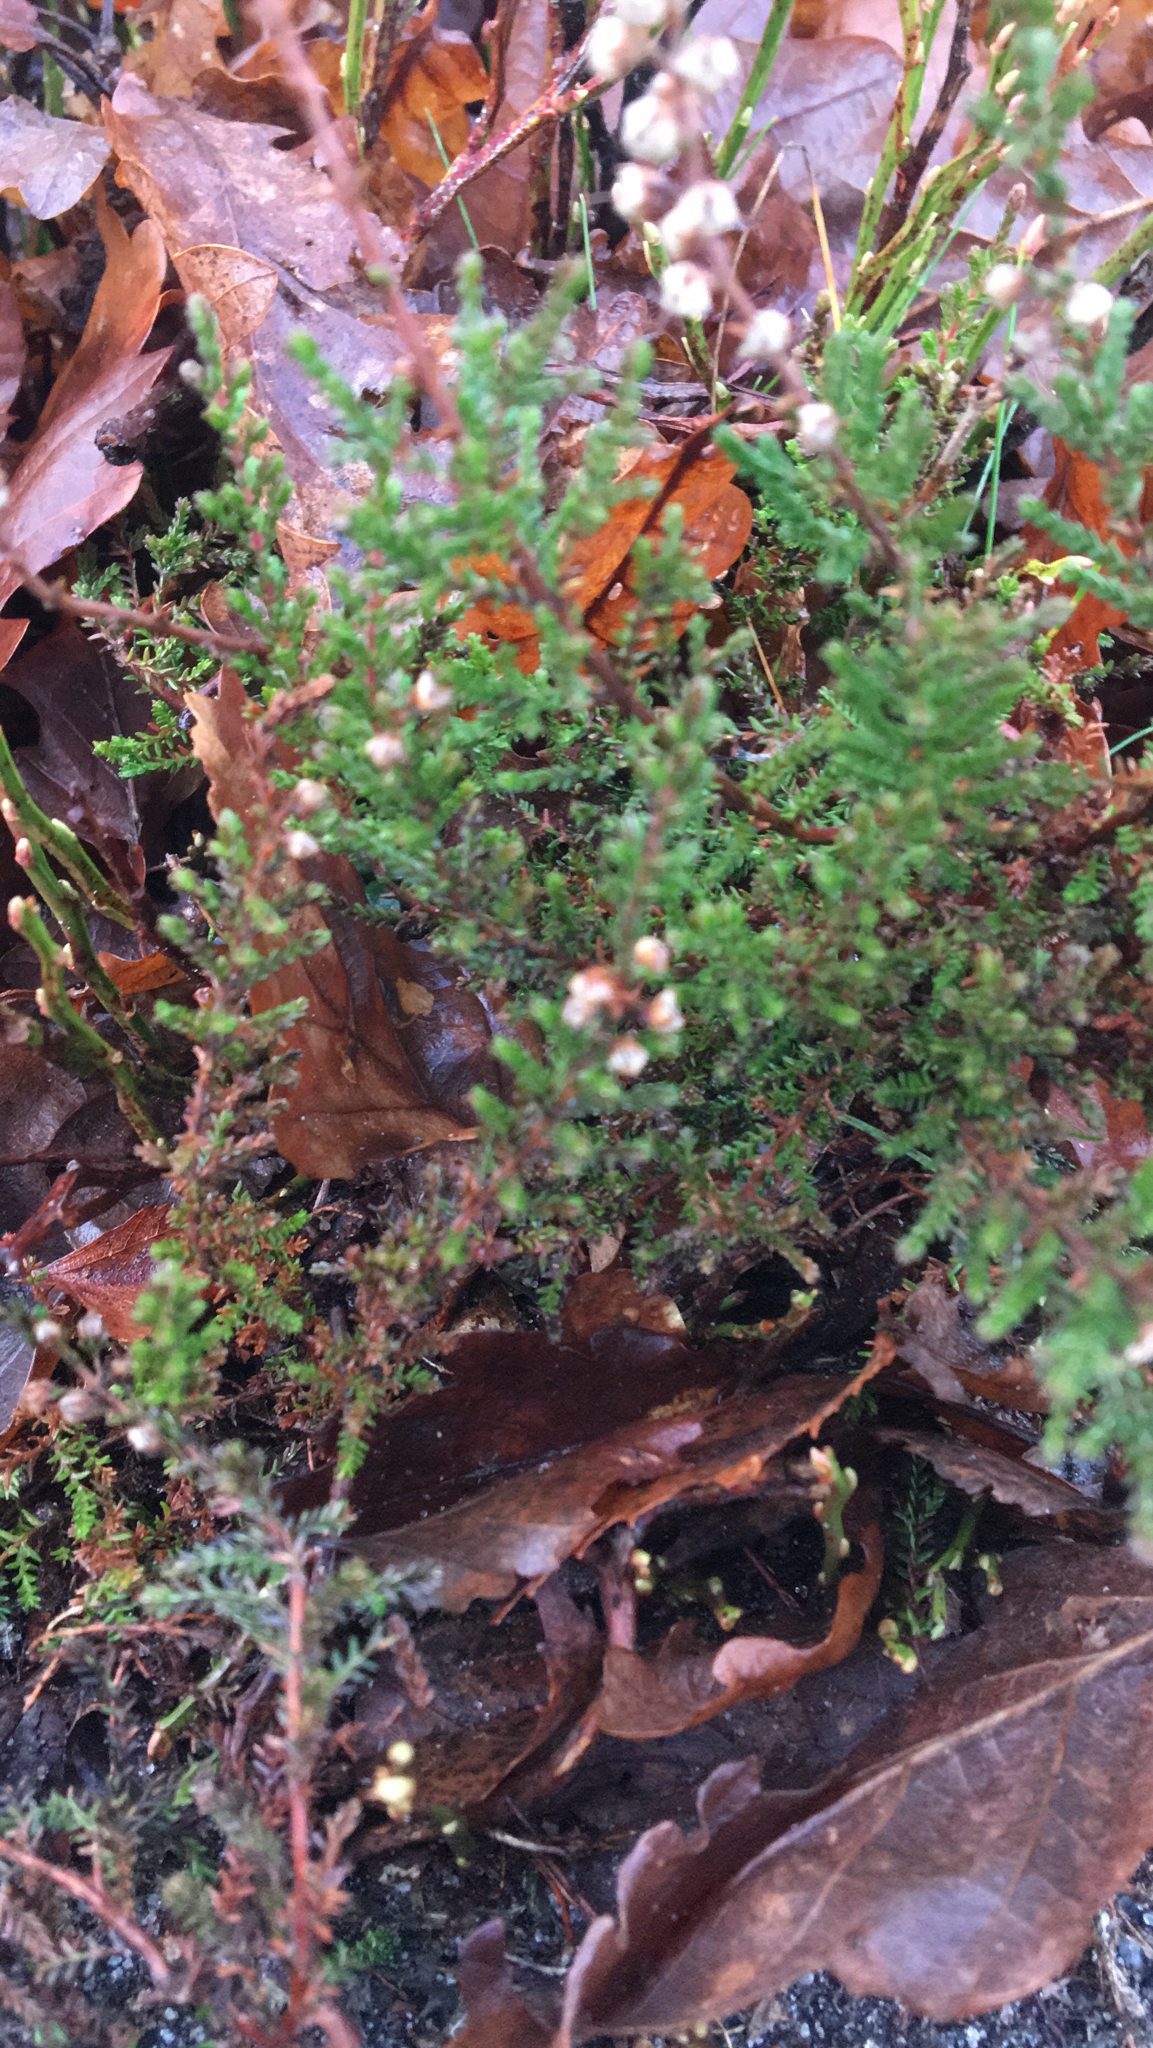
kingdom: Plantae
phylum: Tracheophyta
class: Magnoliopsida
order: Ericales
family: Ericaceae
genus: Calluna
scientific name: Calluna vulgaris
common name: Heather
